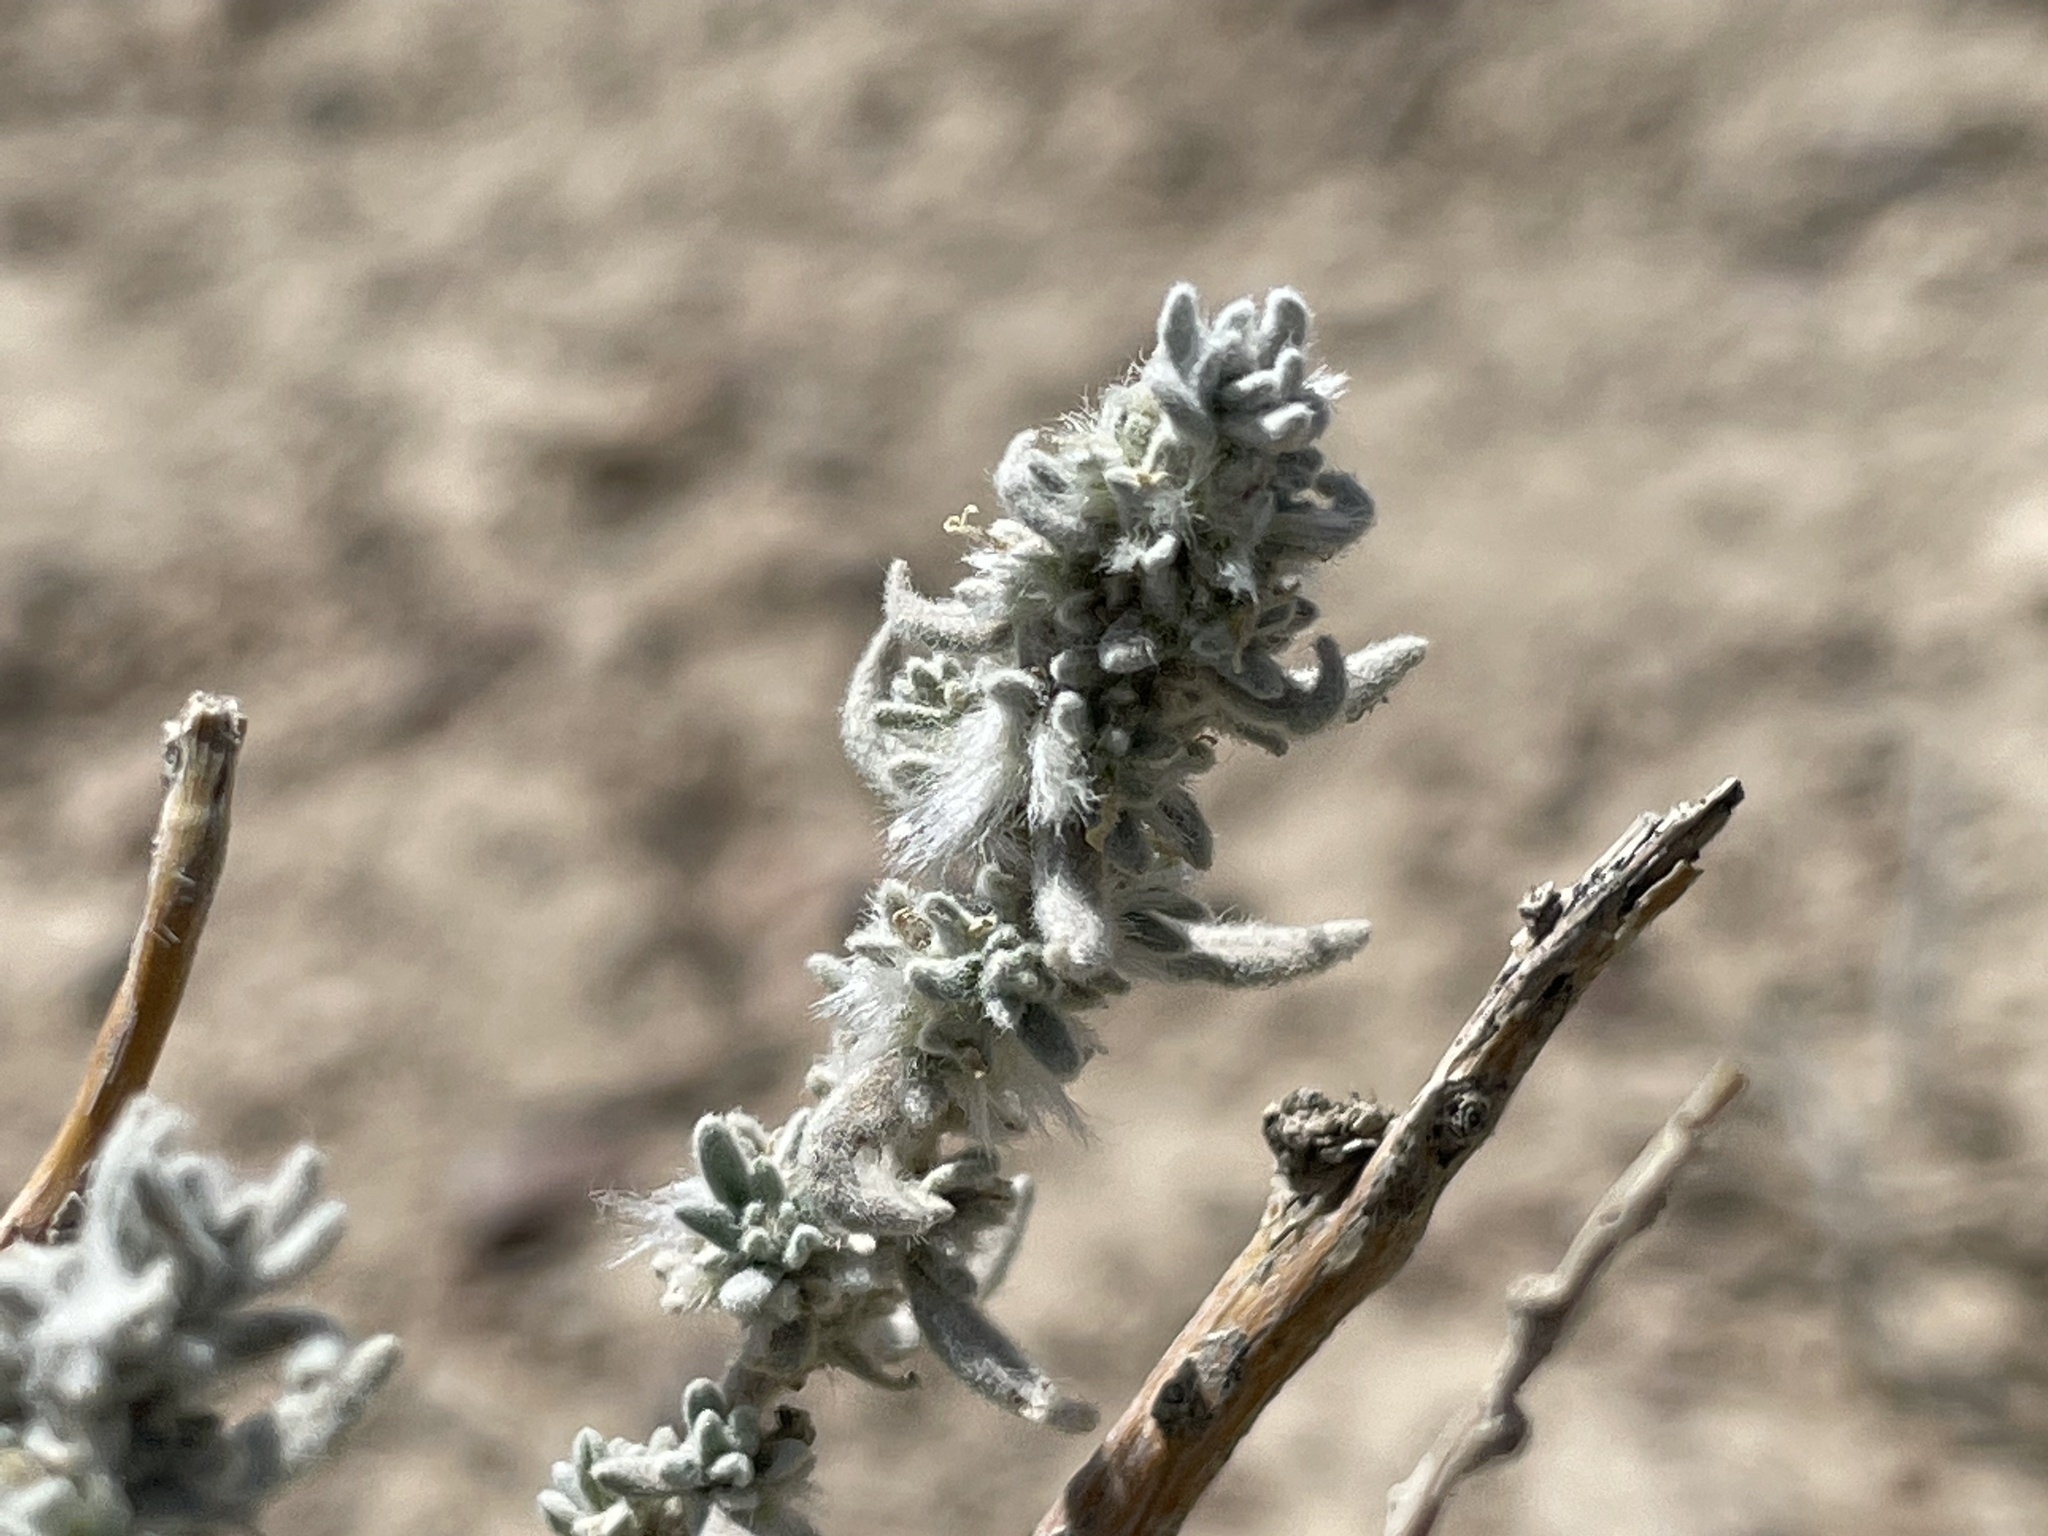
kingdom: Plantae
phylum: Tracheophyta
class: Magnoliopsida
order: Caryophyllales
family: Amaranthaceae
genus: Krascheninnikovia
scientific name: Krascheninnikovia lanata
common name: Winterfat
